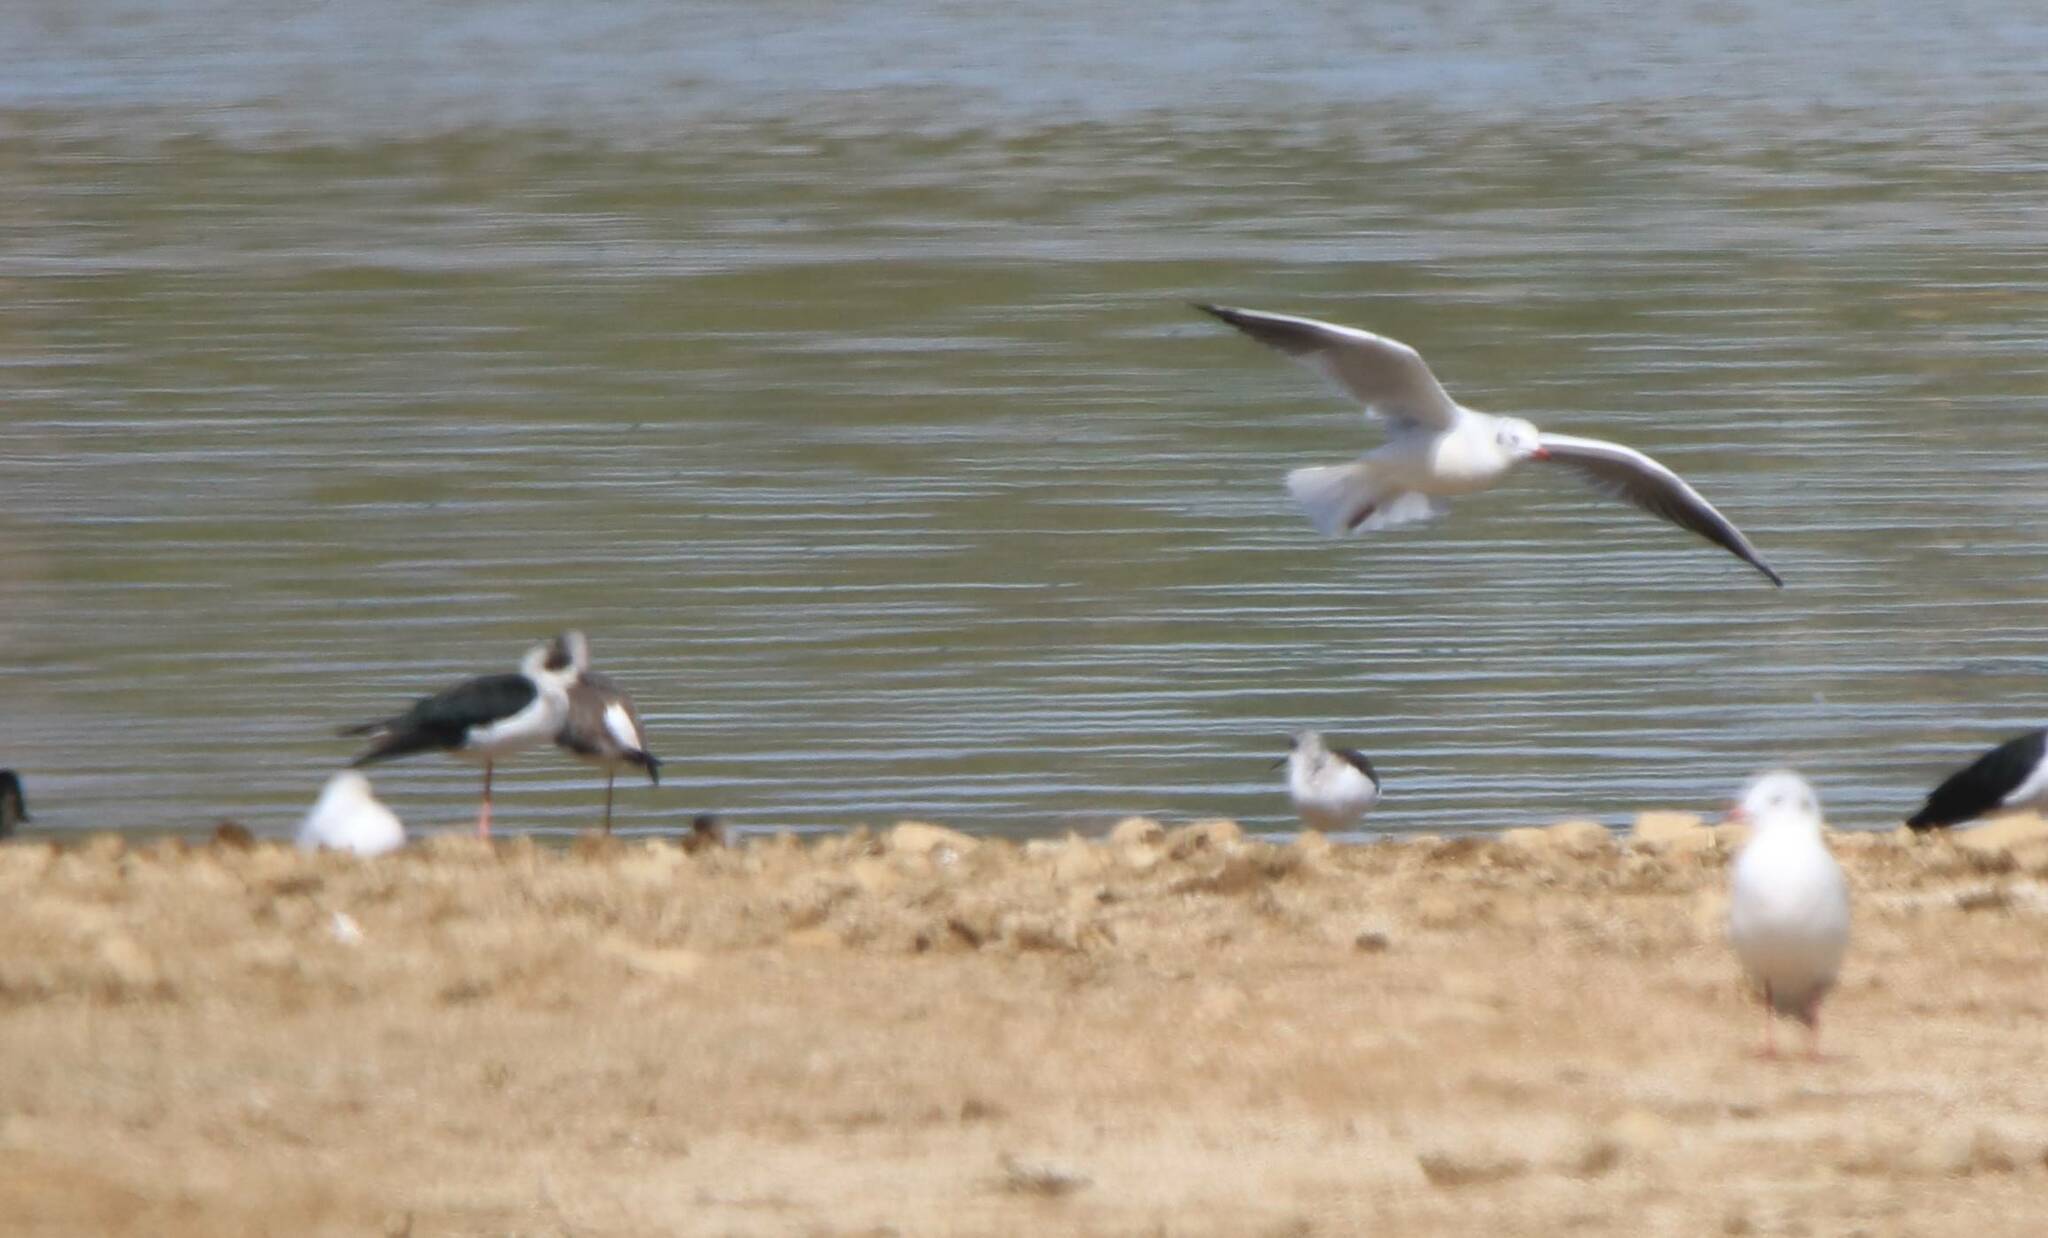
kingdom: Animalia
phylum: Chordata
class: Aves
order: Charadriiformes
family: Recurvirostridae
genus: Himantopus
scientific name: Himantopus himantopus
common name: Black-winged stilt
